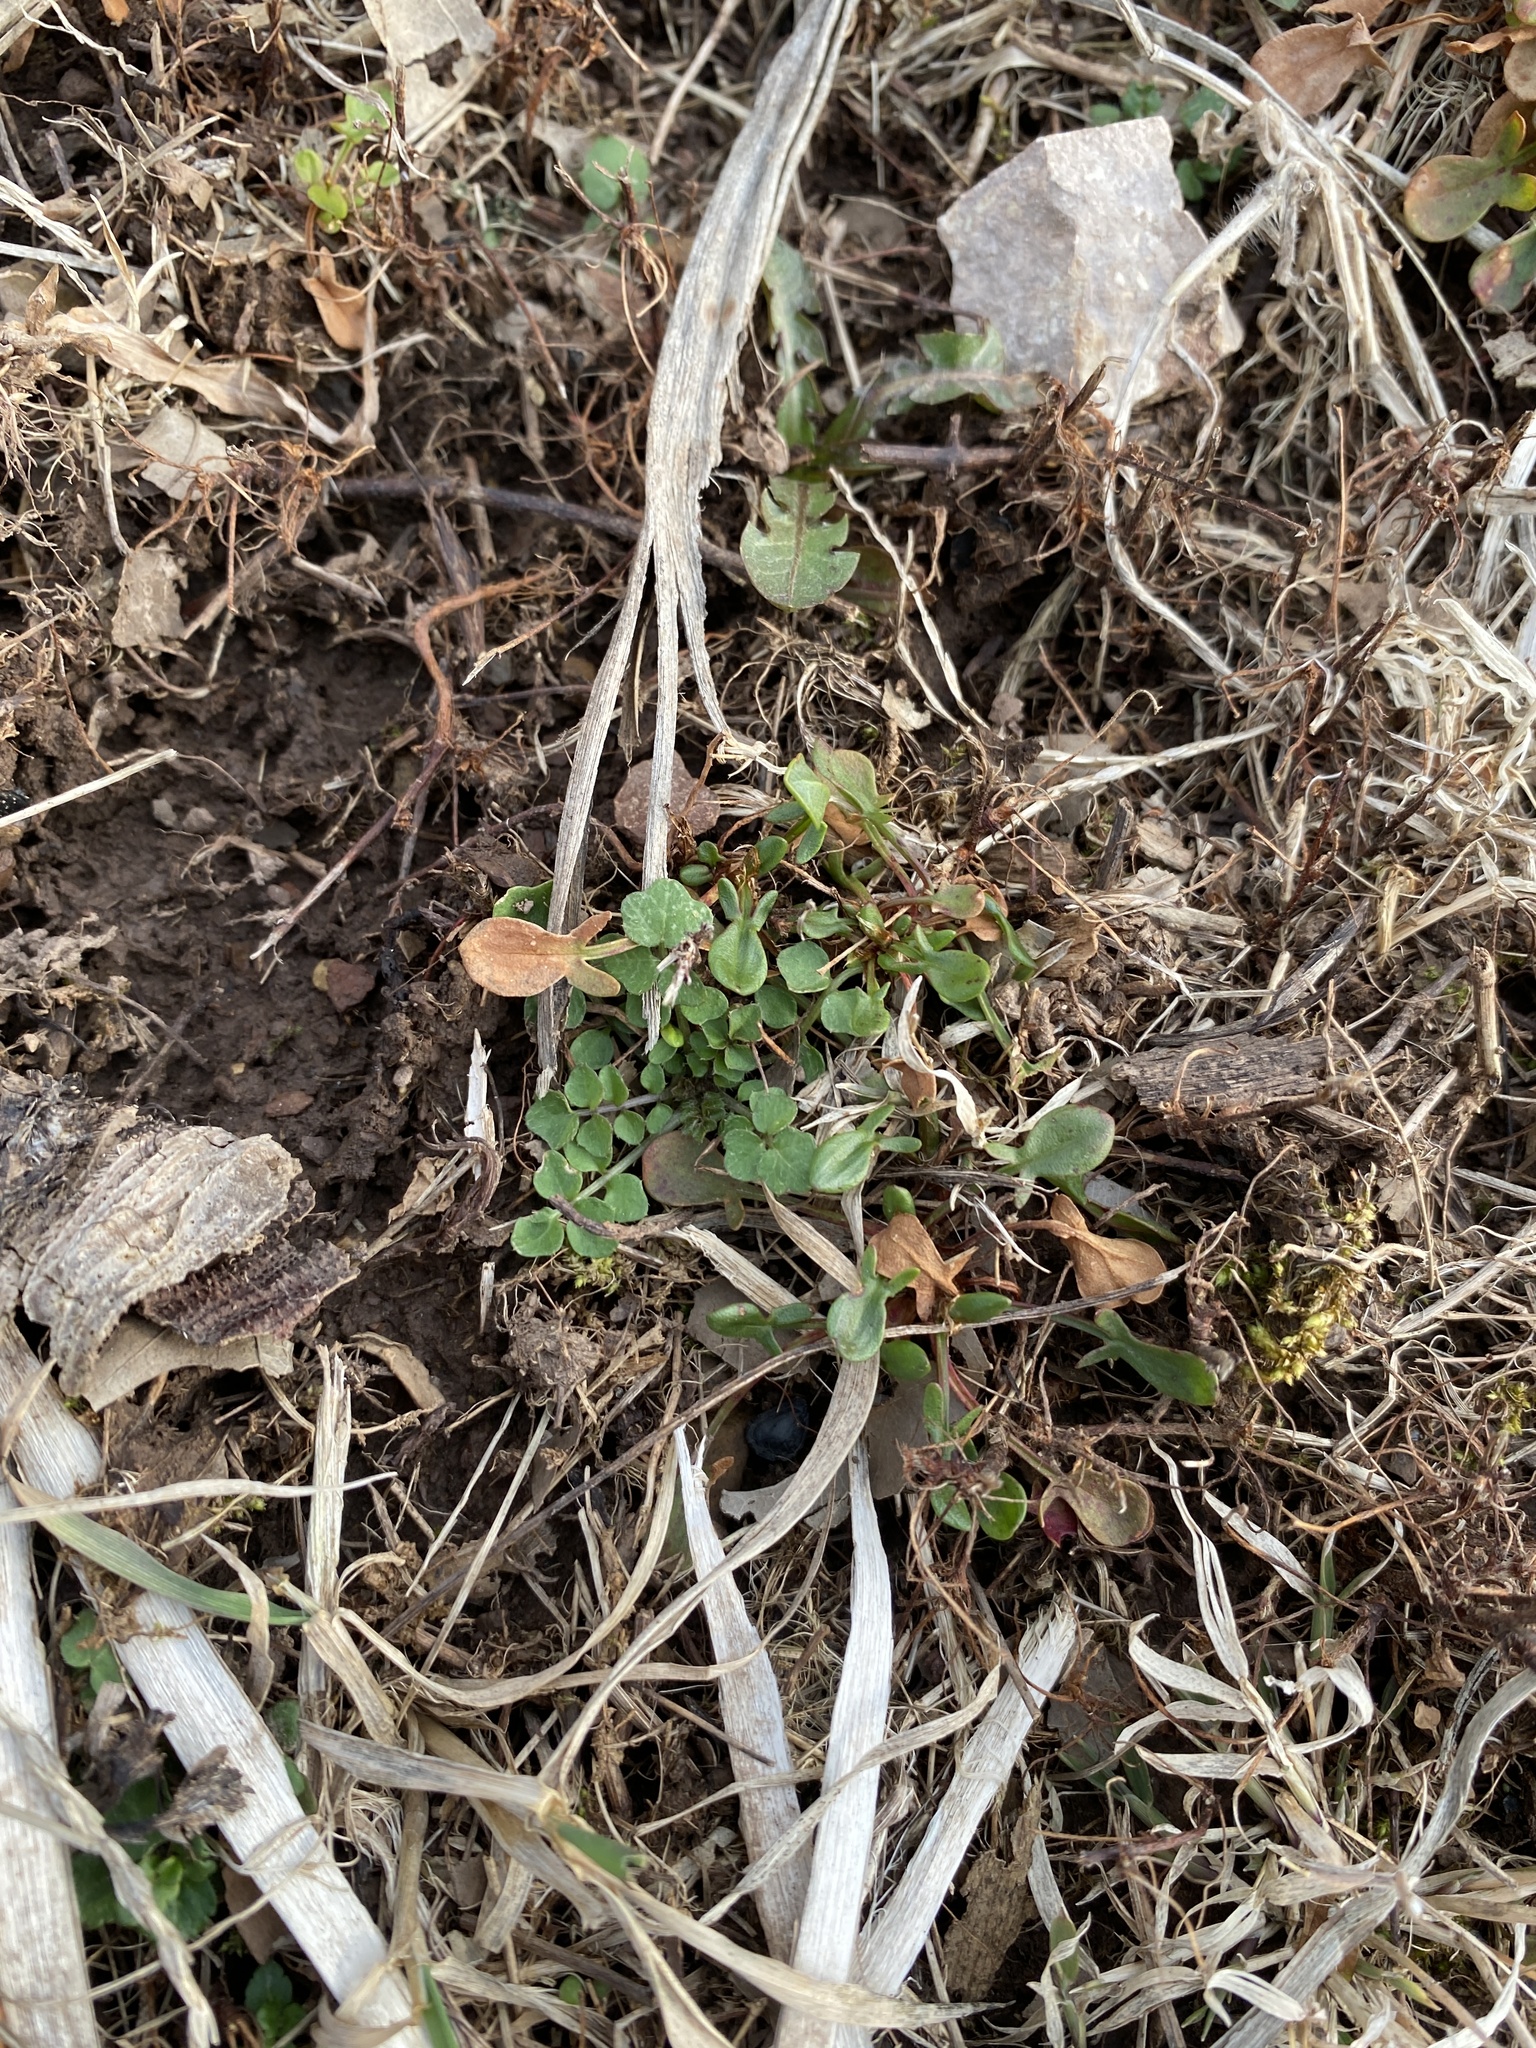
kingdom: Plantae
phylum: Tracheophyta
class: Magnoliopsida
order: Caryophyllales
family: Polygonaceae
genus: Rumex
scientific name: Rumex acetosella
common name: Common sheep sorrel
